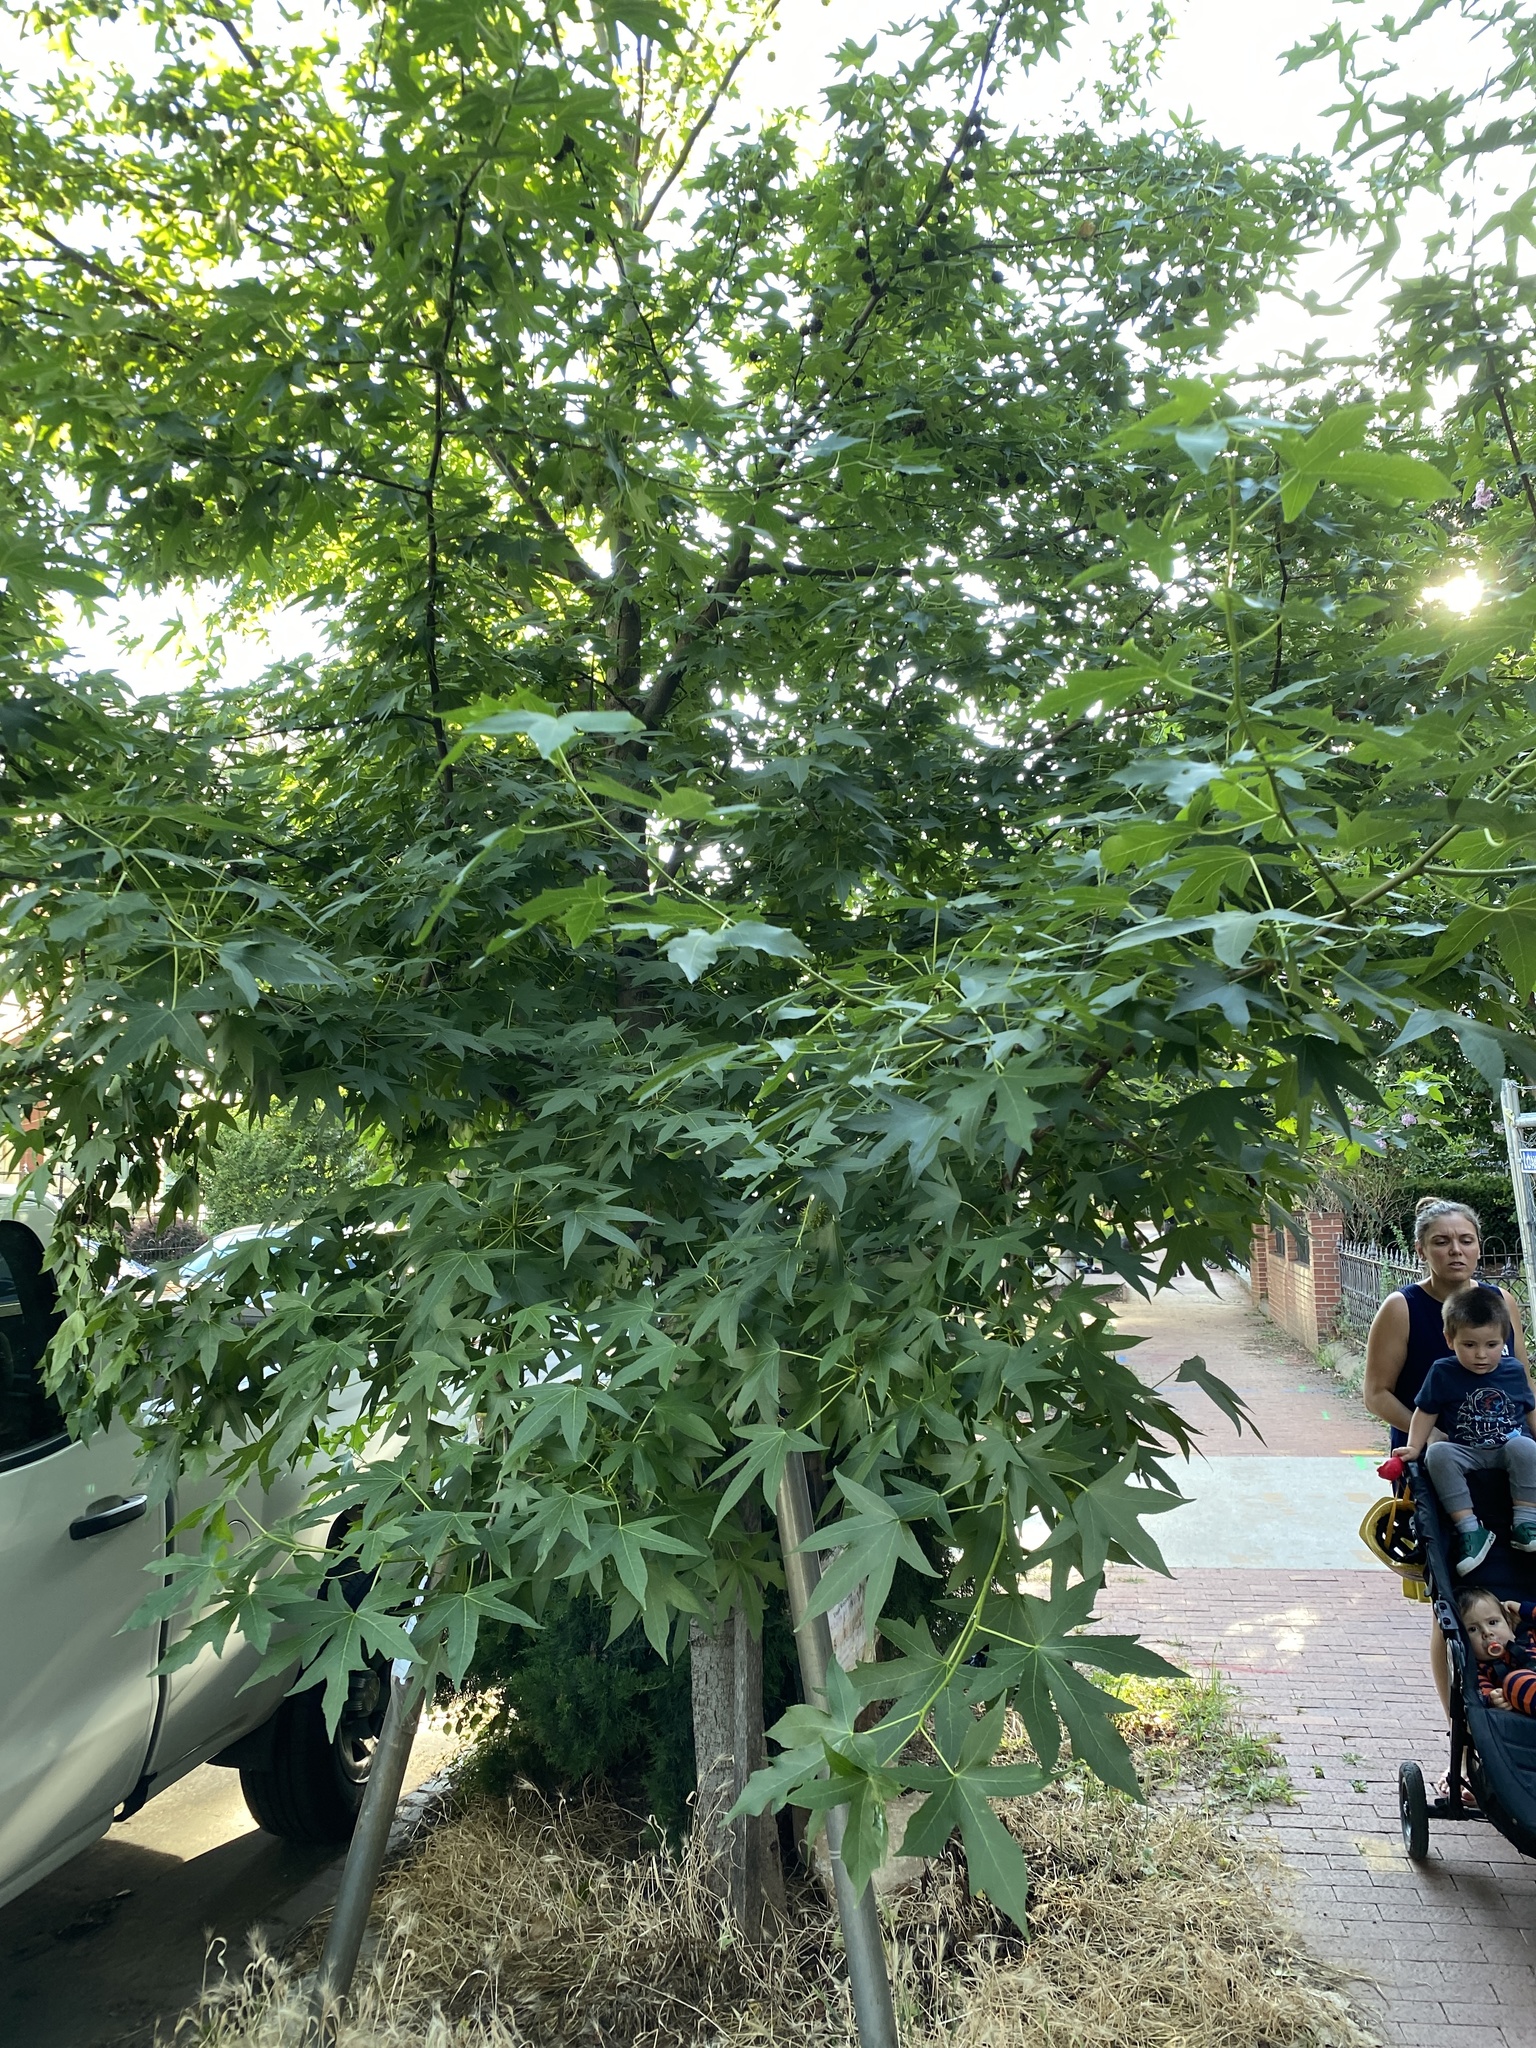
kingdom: Plantae
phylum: Tracheophyta
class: Magnoliopsida
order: Saxifragales
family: Altingiaceae
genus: Liquidambar
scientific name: Liquidambar styraciflua
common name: Sweet gum
